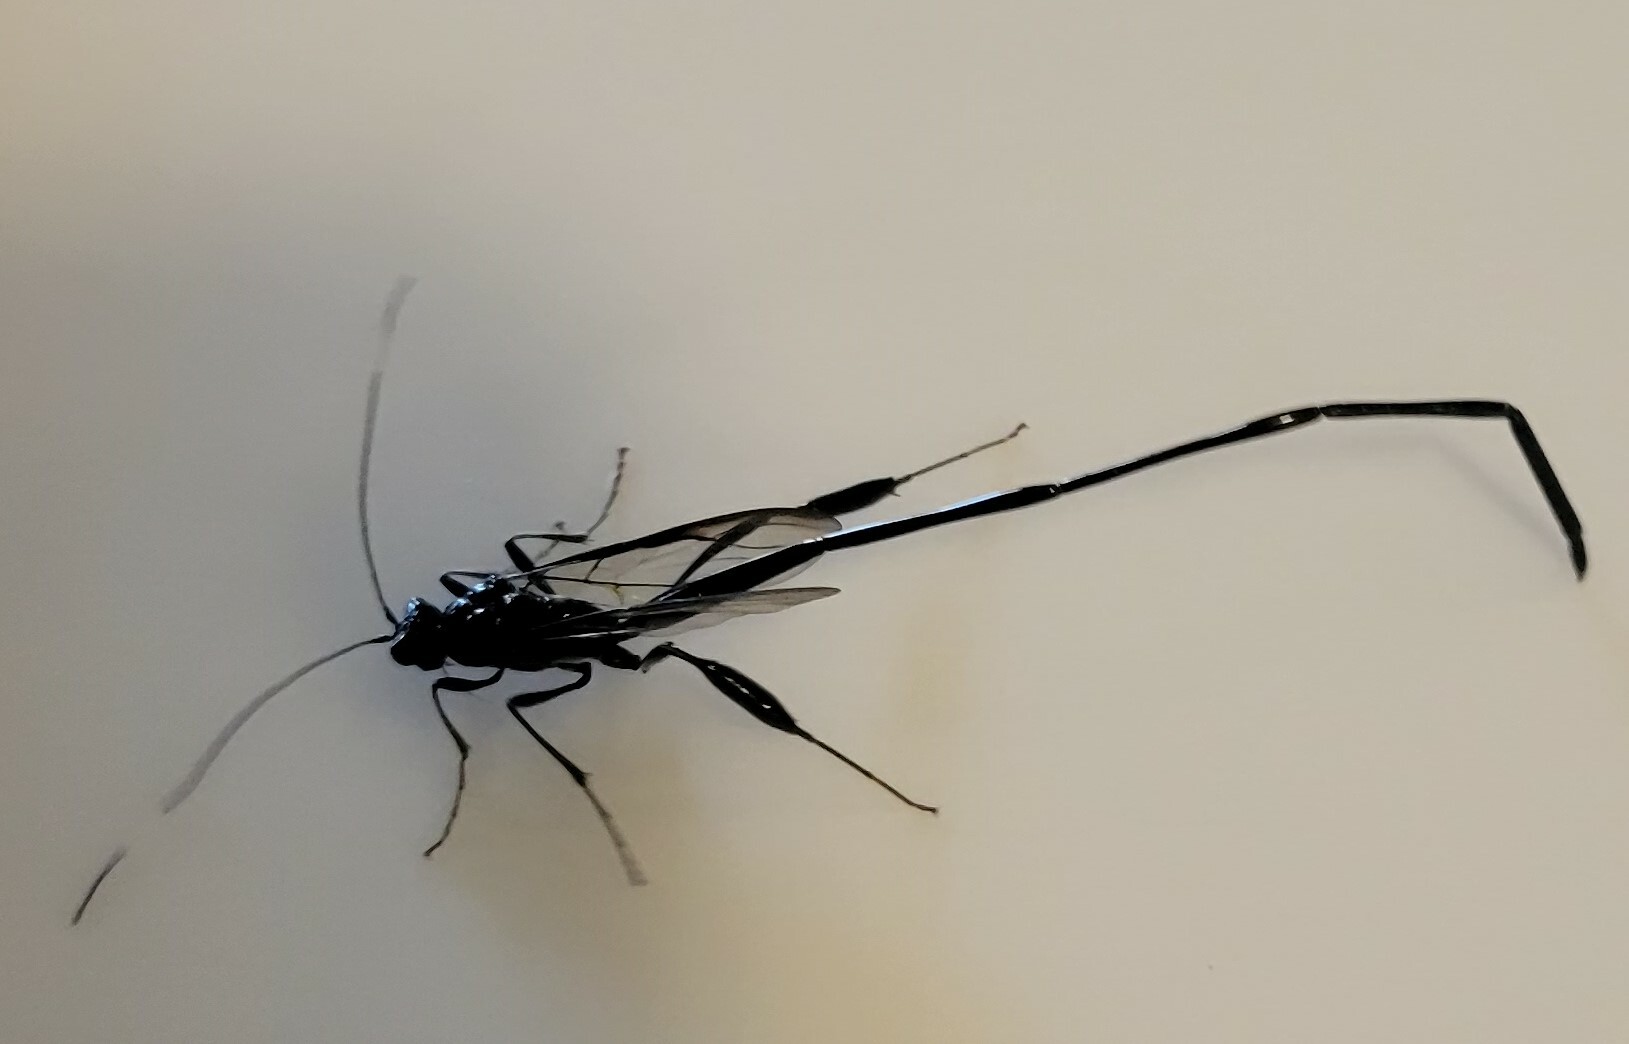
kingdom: Animalia
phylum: Arthropoda
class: Insecta
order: Hymenoptera
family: Pelecinidae
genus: Pelecinus
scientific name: Pelecinus polyturator
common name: American pelecinid wasp
